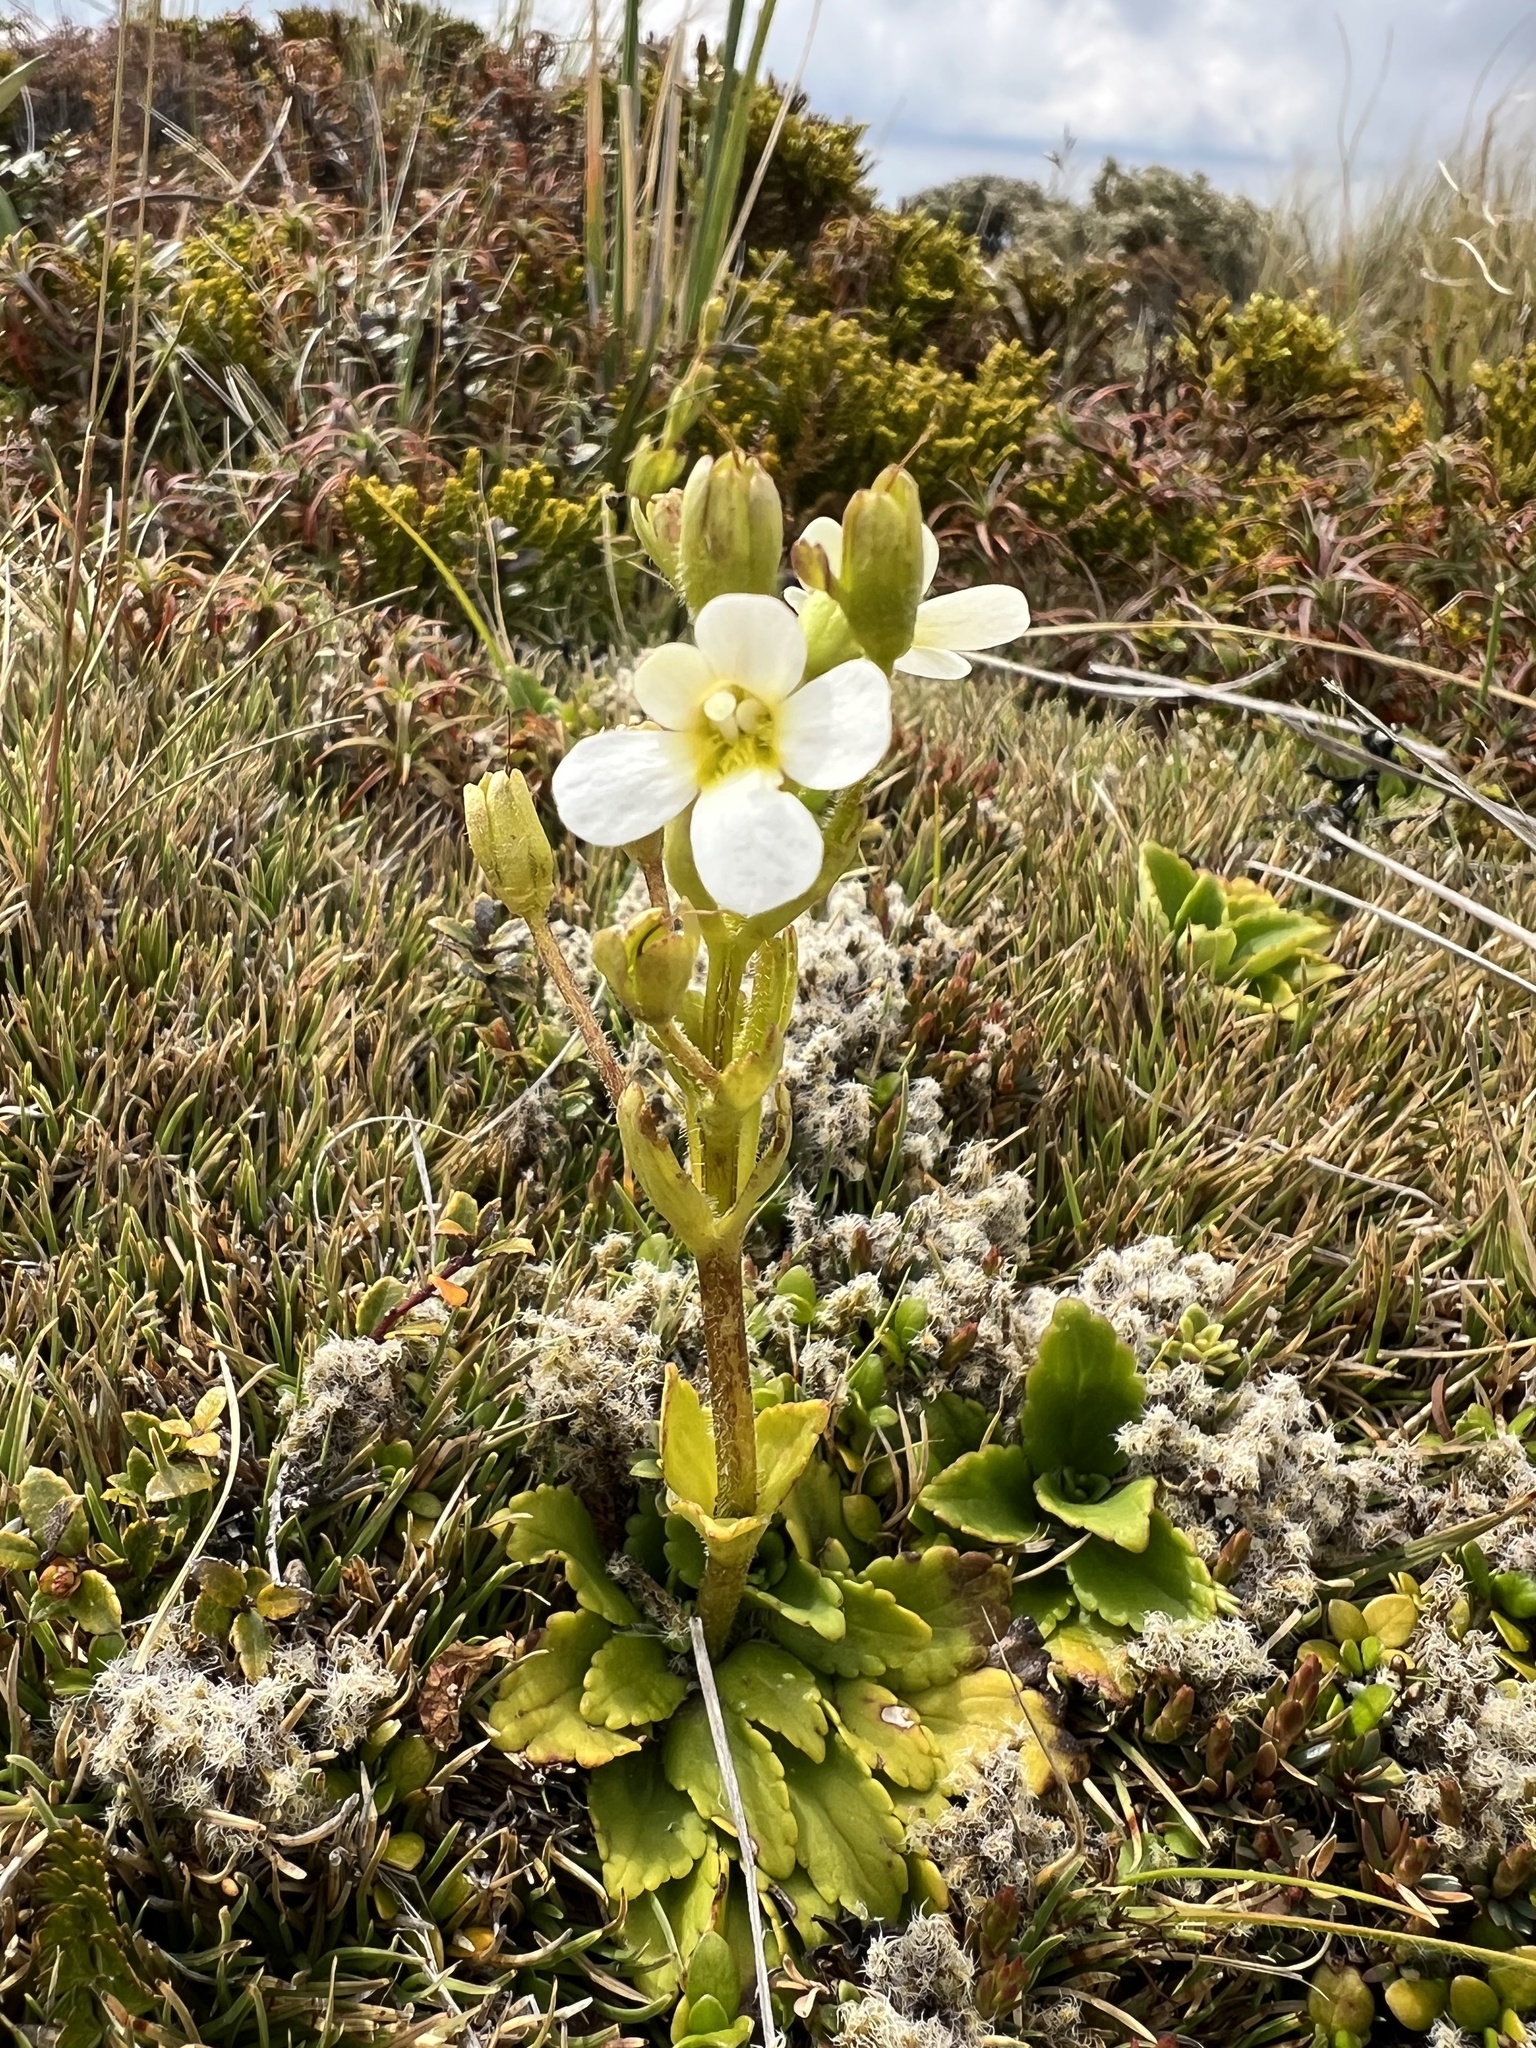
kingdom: Plantae
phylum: Tracheophyta
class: Magnoliopsida
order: Lamiales
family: Plantaginaceae
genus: Ourisia
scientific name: Ourisia vulcanica
